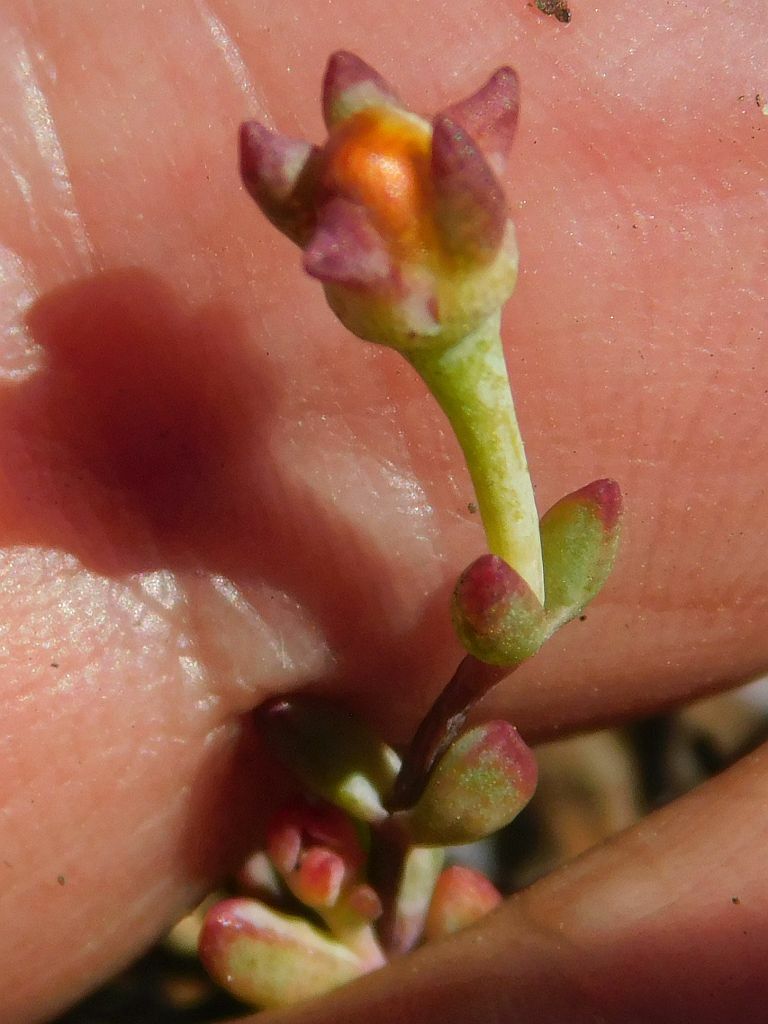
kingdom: Plantae
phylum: Tracheophyta
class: Magnoliopsida
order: Caryophyllales
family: Aizoaceae
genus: Lampranthus
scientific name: Lampranthus falcatus
